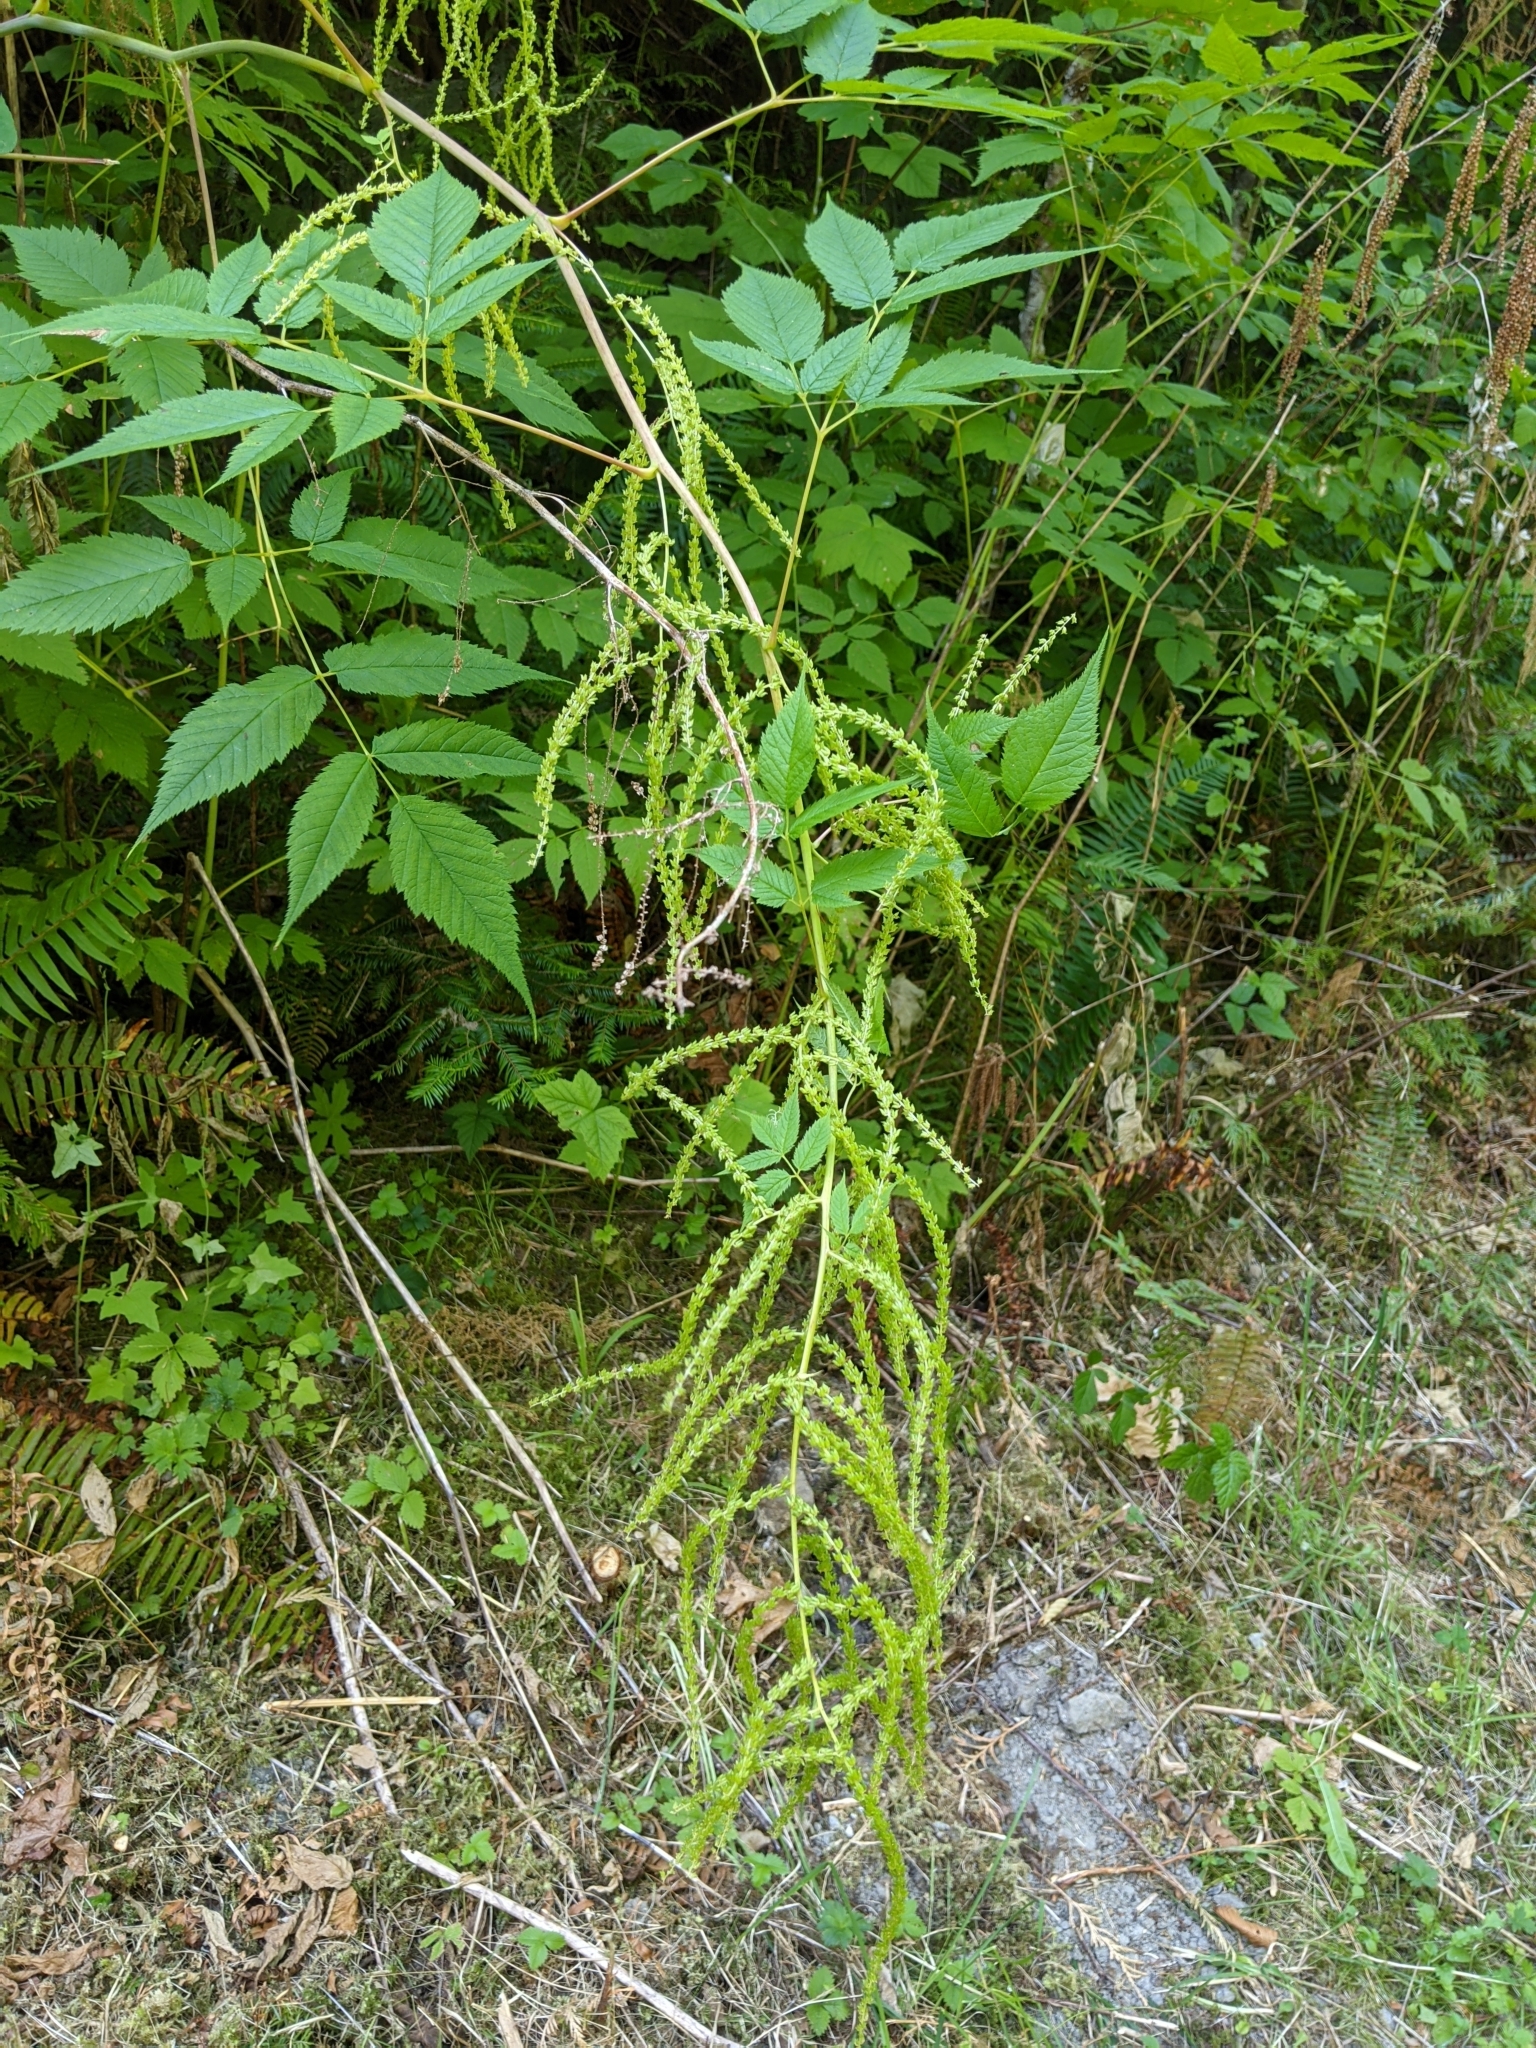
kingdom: Plantae
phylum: Tracheophyta
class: Magnoliopsida
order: Rosales
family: Rosaceae
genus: Aruncus
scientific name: Aruncus dioicus
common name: Buck's-beard
